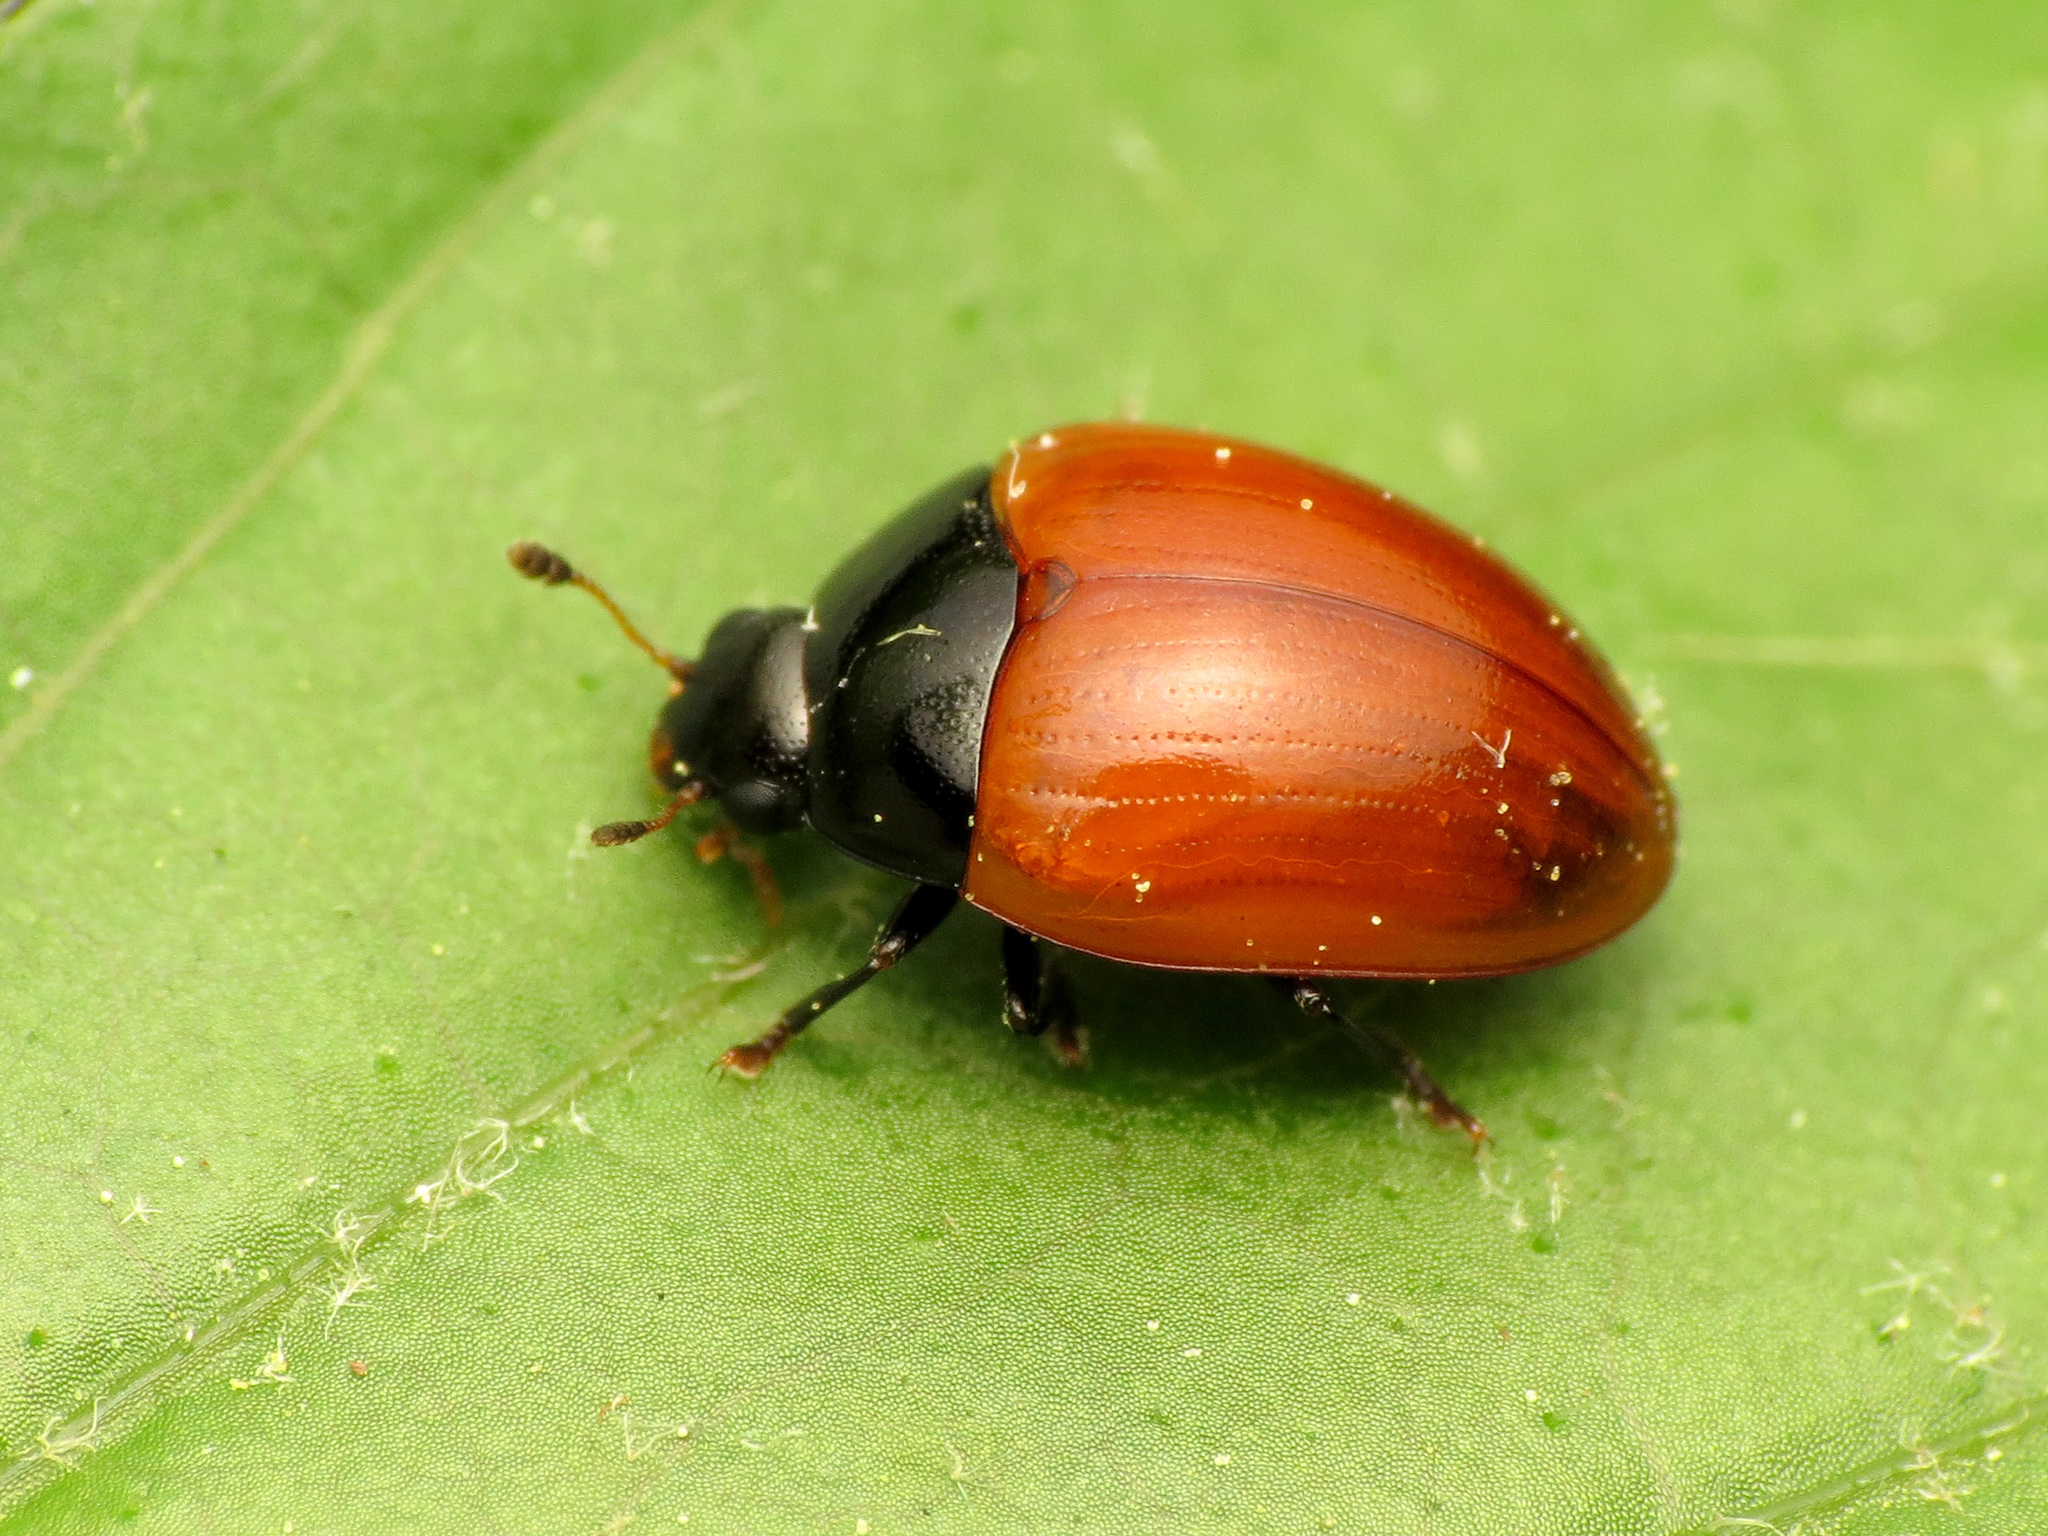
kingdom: Animalia
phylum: Arthropoda
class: Insecta
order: Coleoptera
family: Erotylidae
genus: Tritoma
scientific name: Tritoma sanguinipennis
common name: Red-winged tritoma
